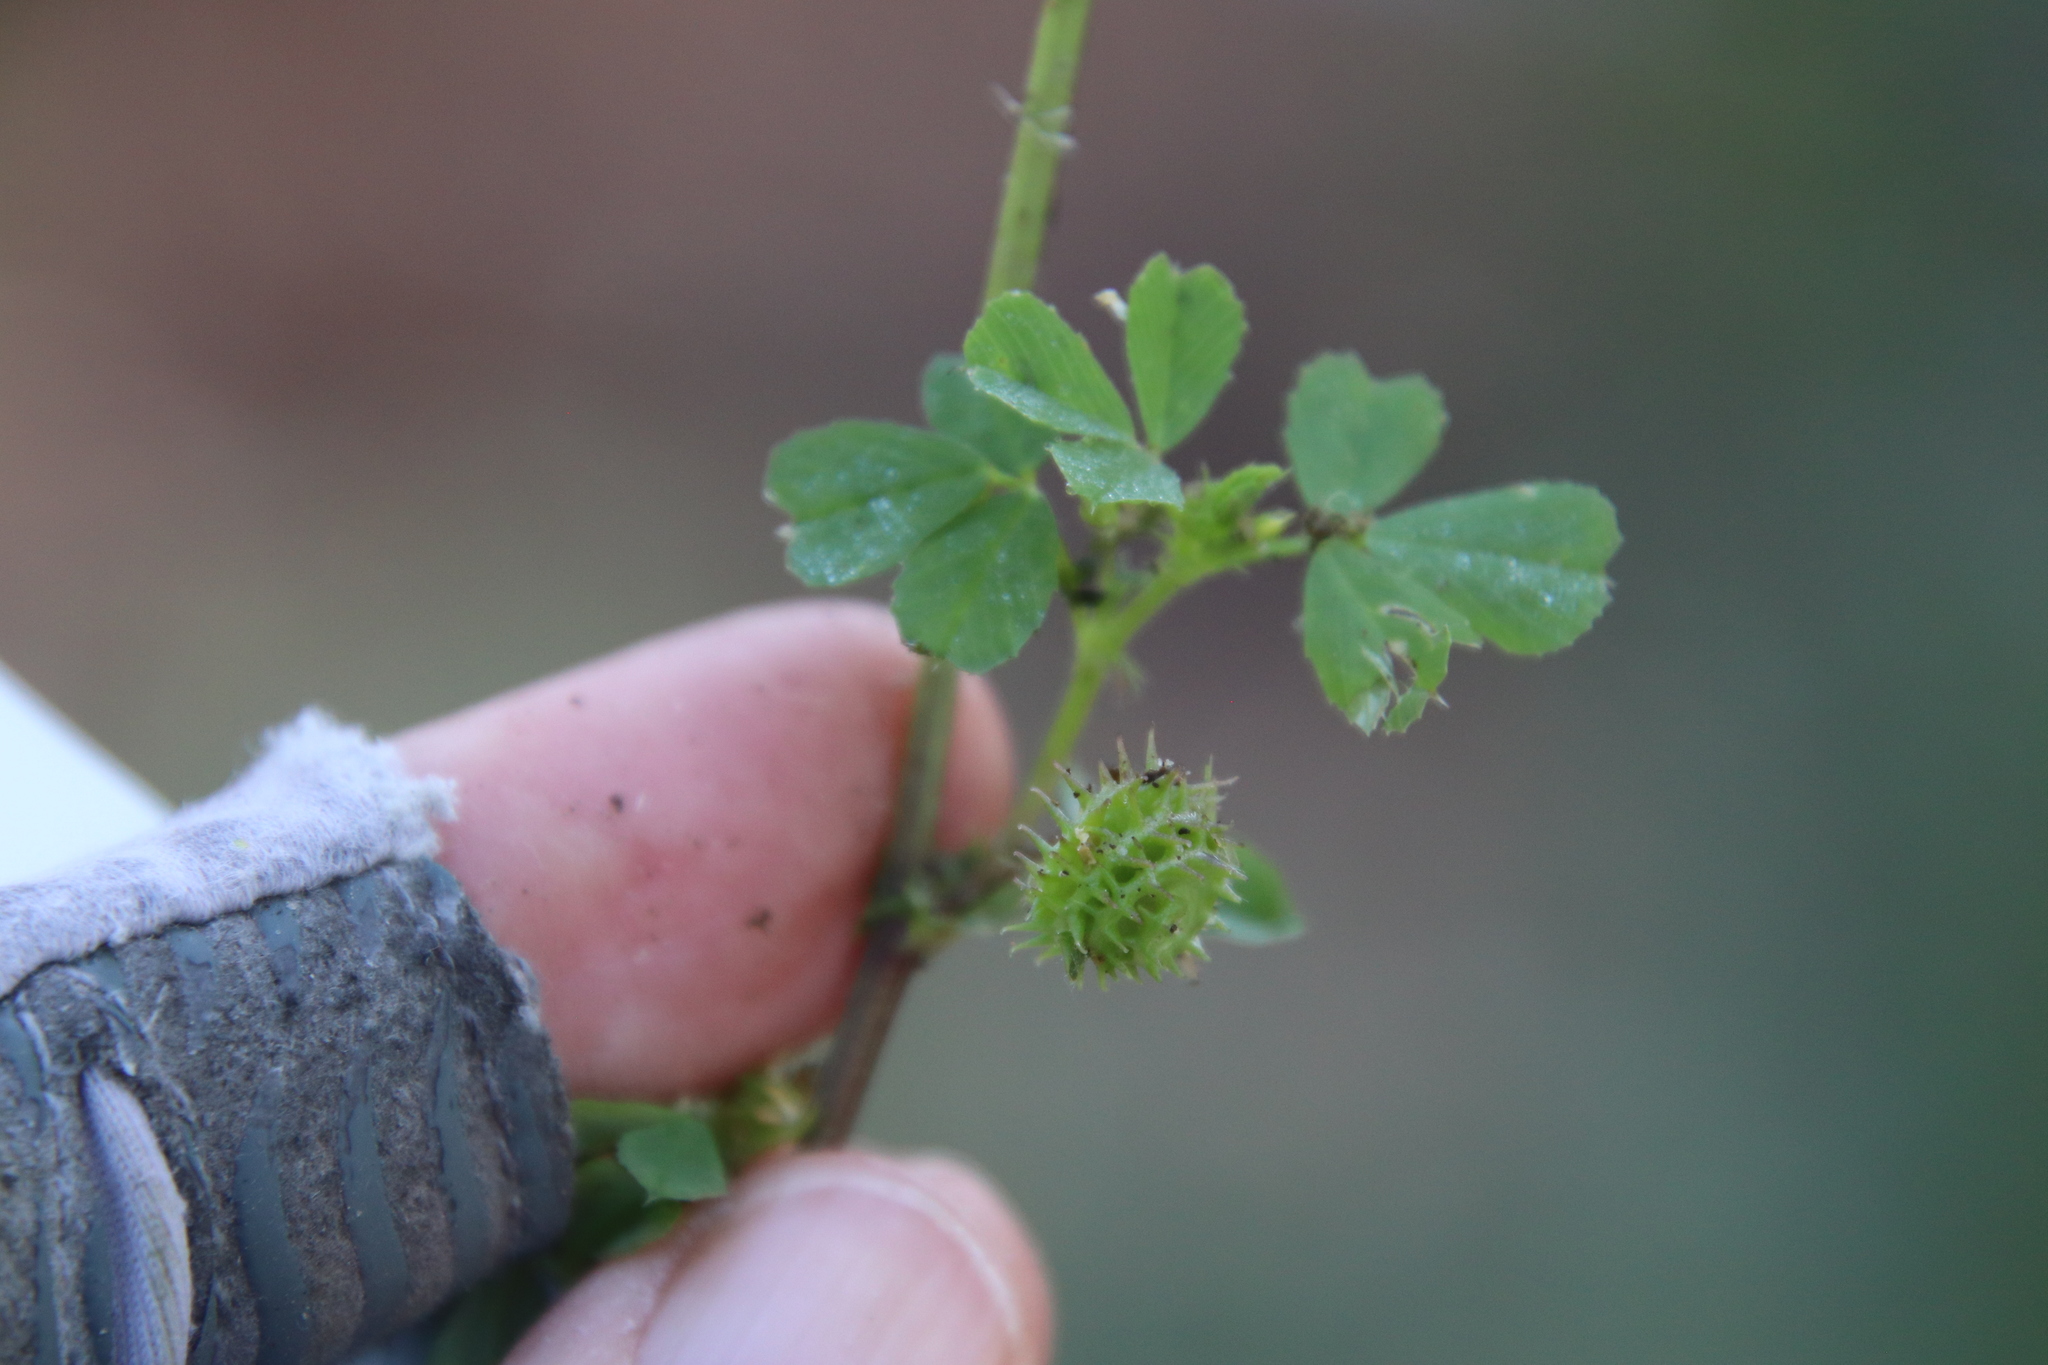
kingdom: Plantae
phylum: Tracheophyta
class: Magnoliopsida
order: Fabales
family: Fabaceae
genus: Medicago
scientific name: Medicago polymorpha
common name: Burclover
